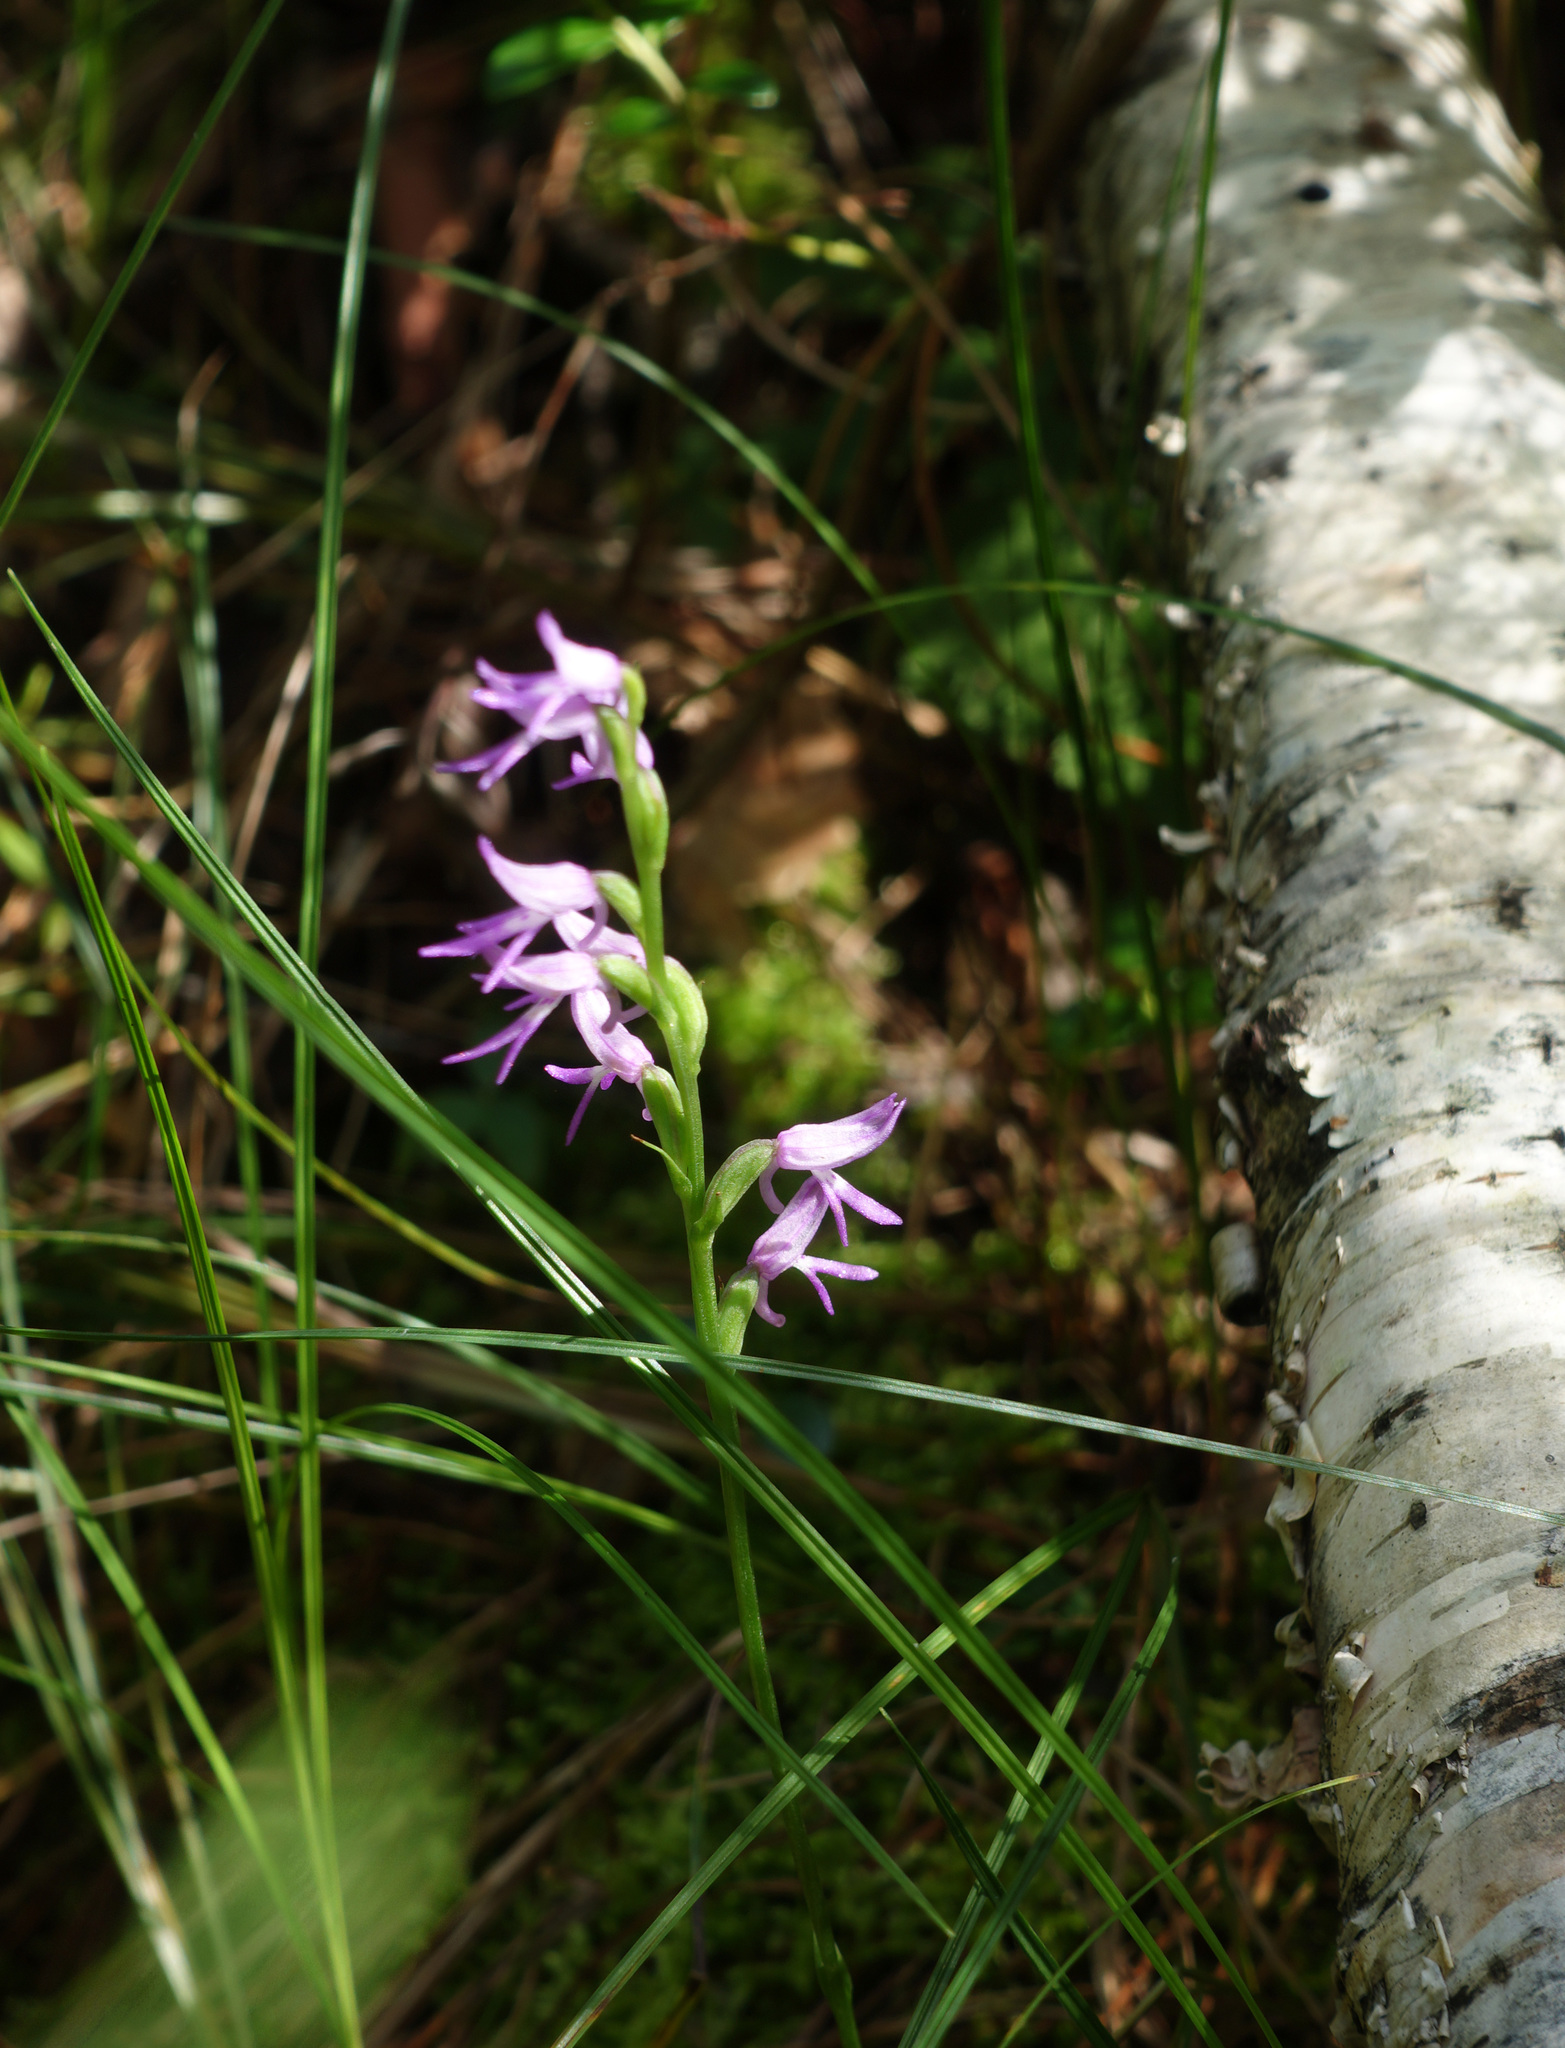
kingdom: Plantae
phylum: Tracheophyta
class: Liliopsida
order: Asparagales
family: Orchidaceae
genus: Hemipilia
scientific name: Hemipilia cucullata
